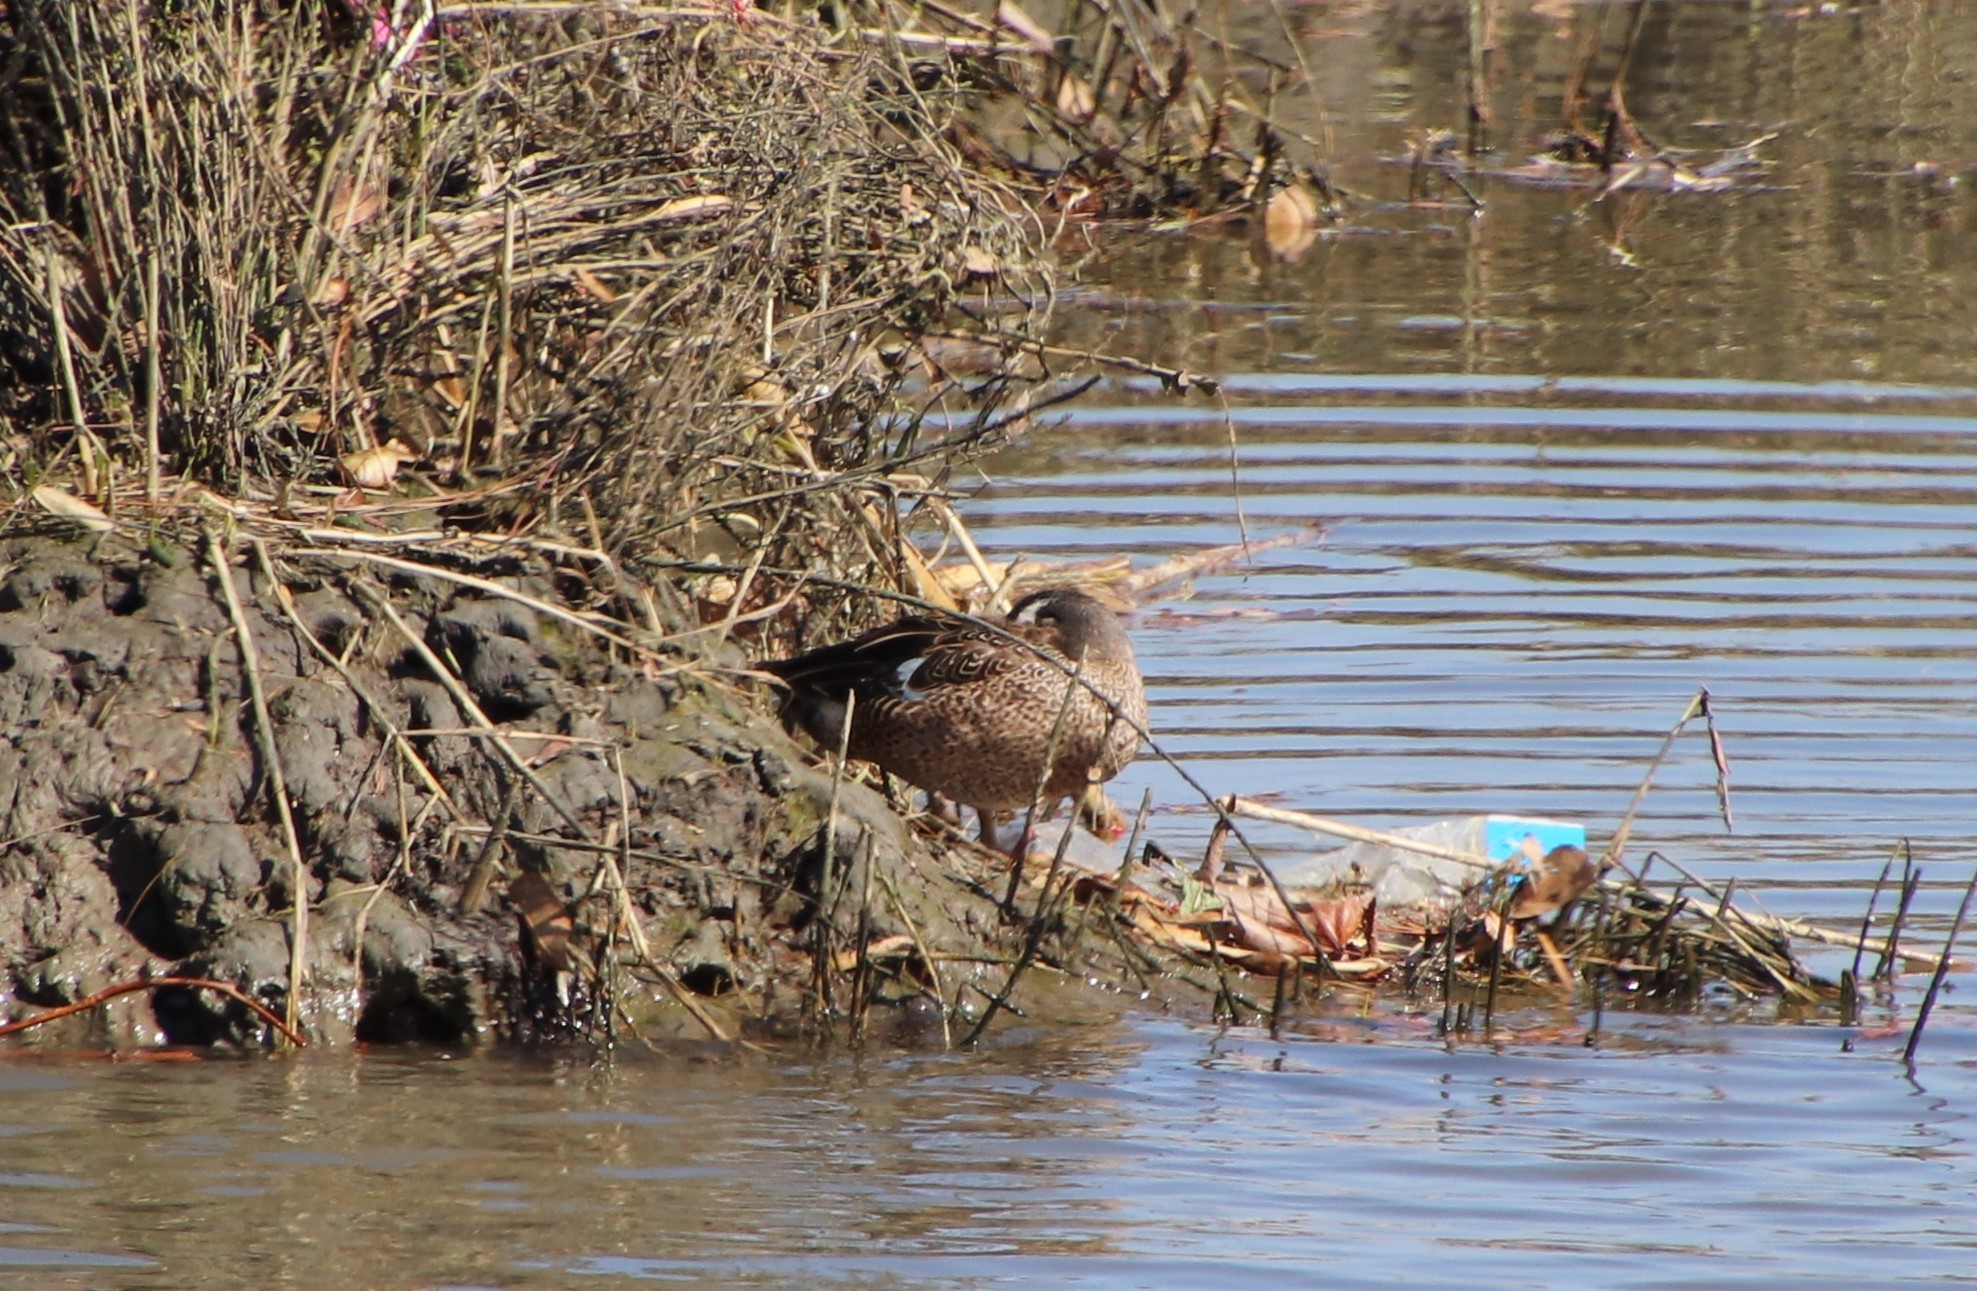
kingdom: Animalia
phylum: Chordata
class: Aves
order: Anseriformes
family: Anatidae
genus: Spatula
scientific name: Spatula discors
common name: Blue-winged teal
